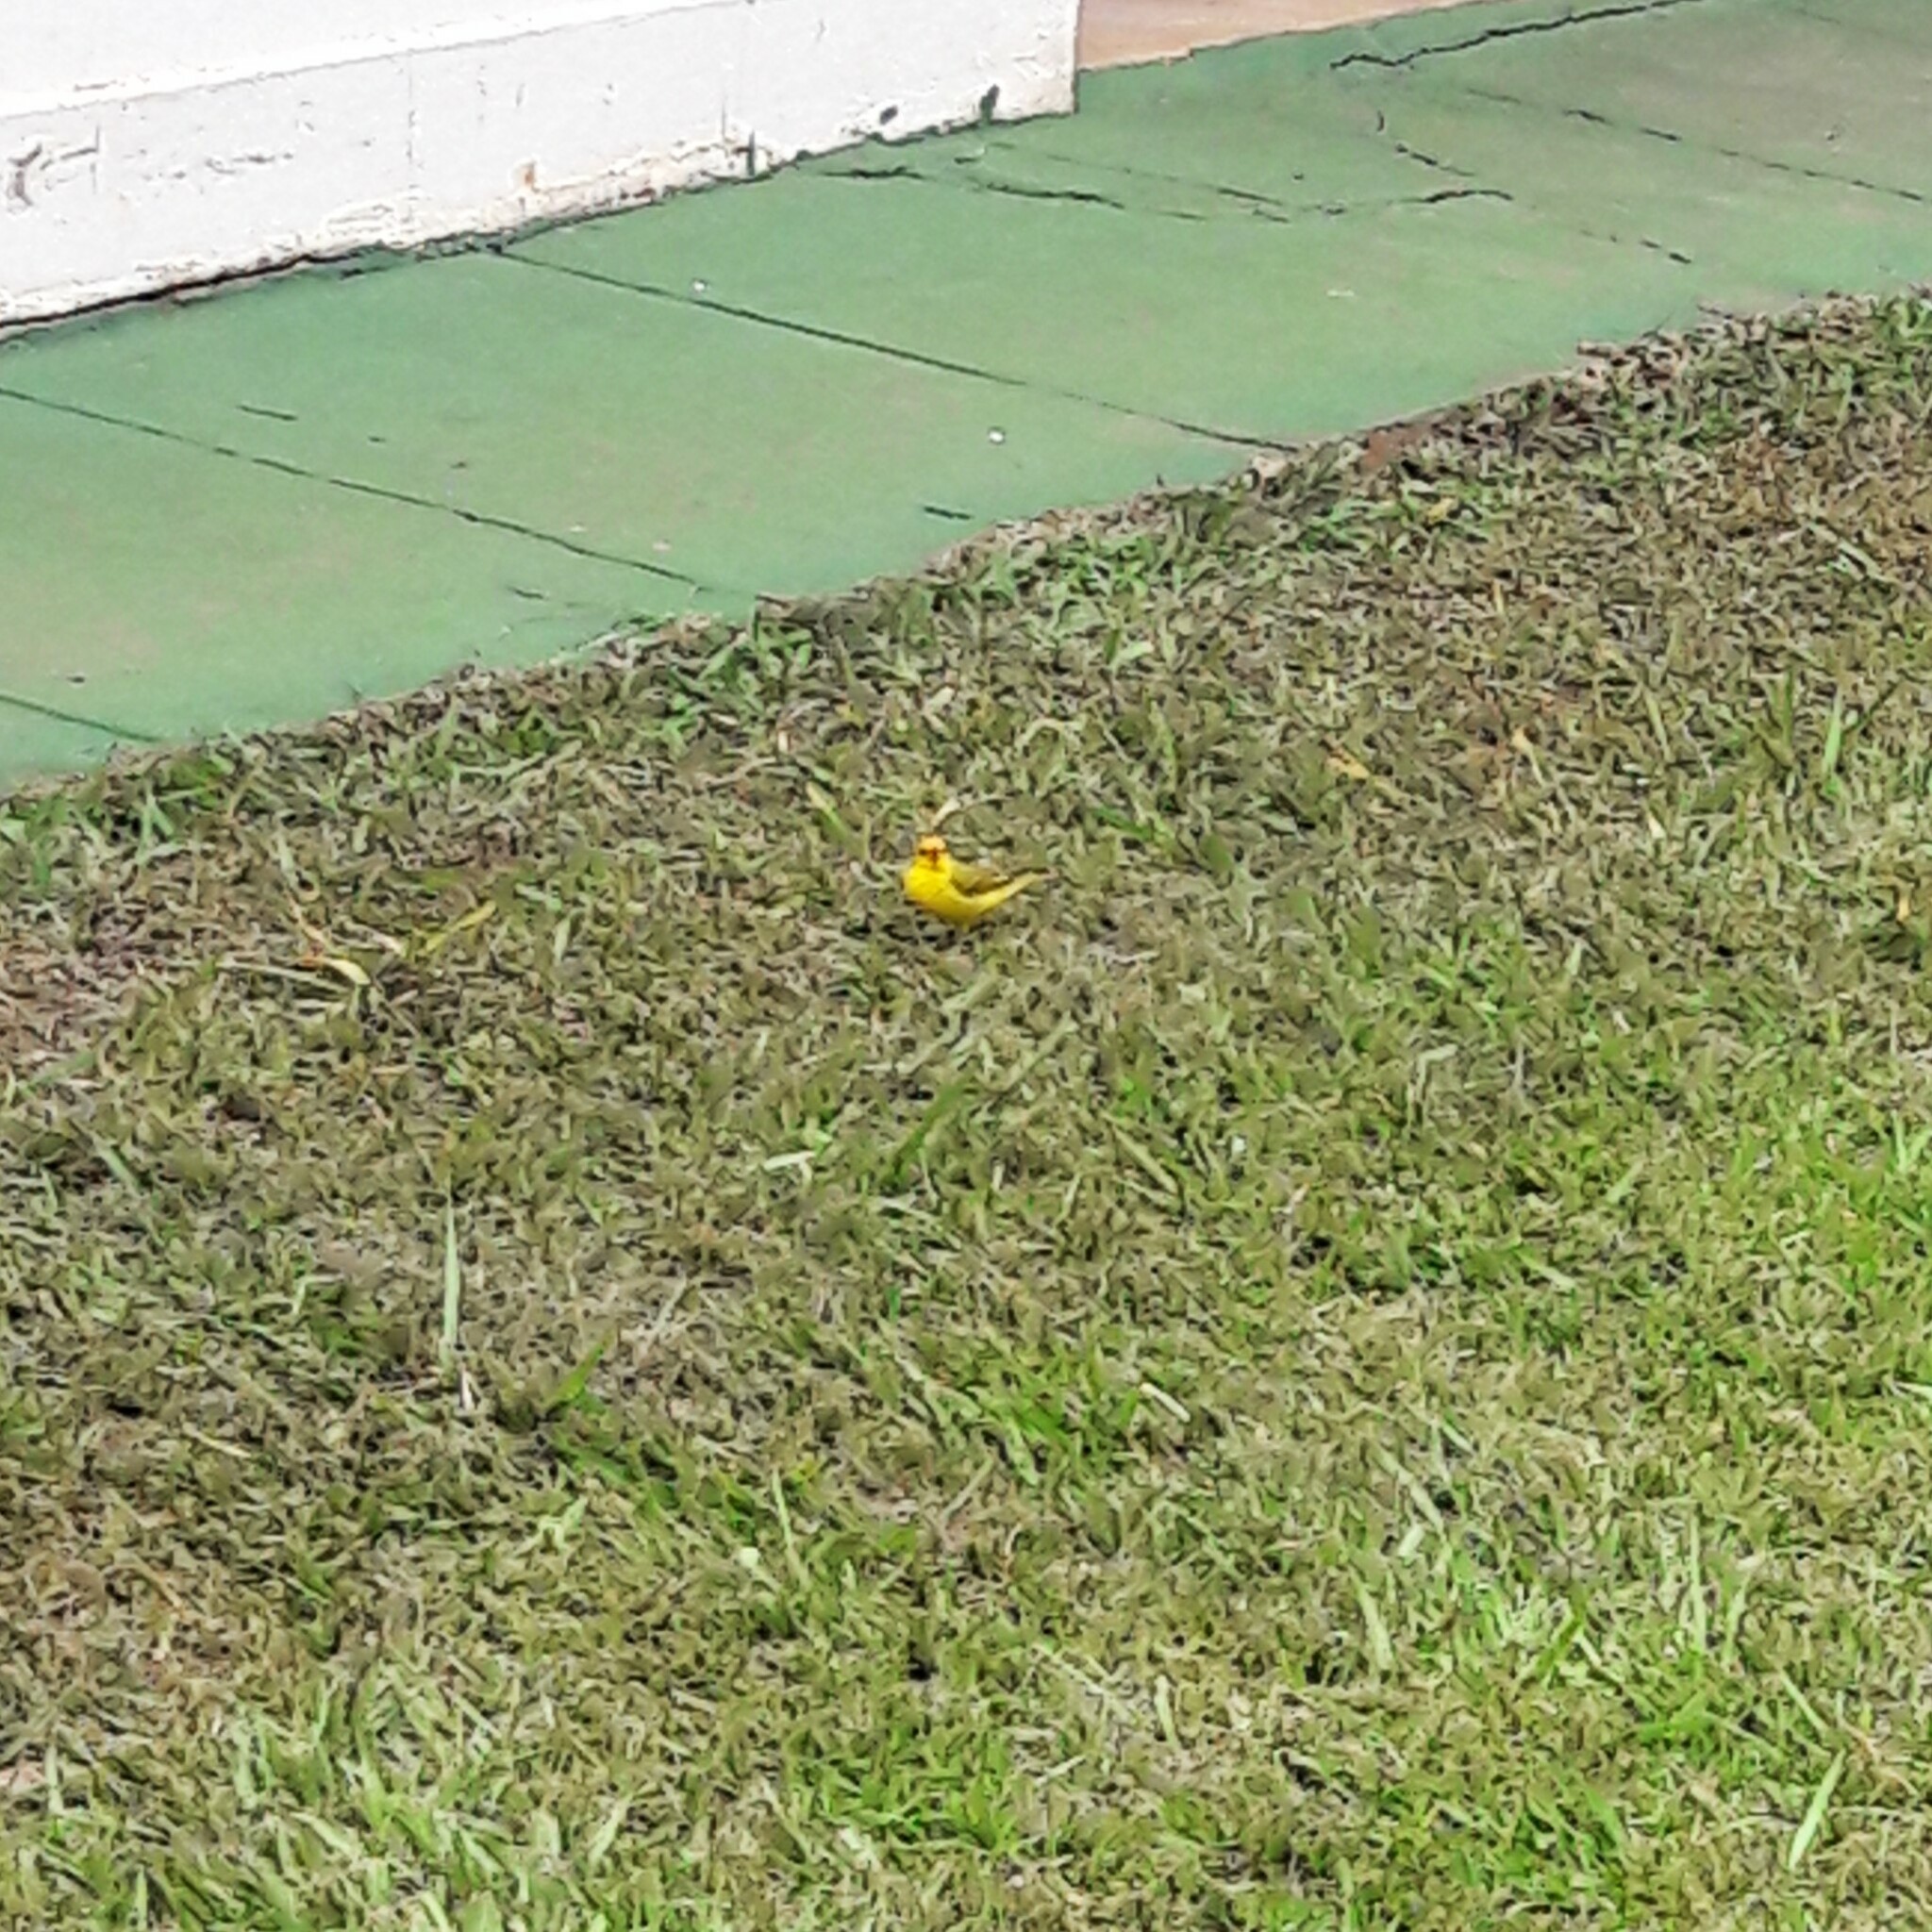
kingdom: Animalia
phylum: Chordata
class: Aves
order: Passeriformes
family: Thraupidae
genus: Sicalis
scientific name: Sicalis flaveola
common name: Saffron finch
